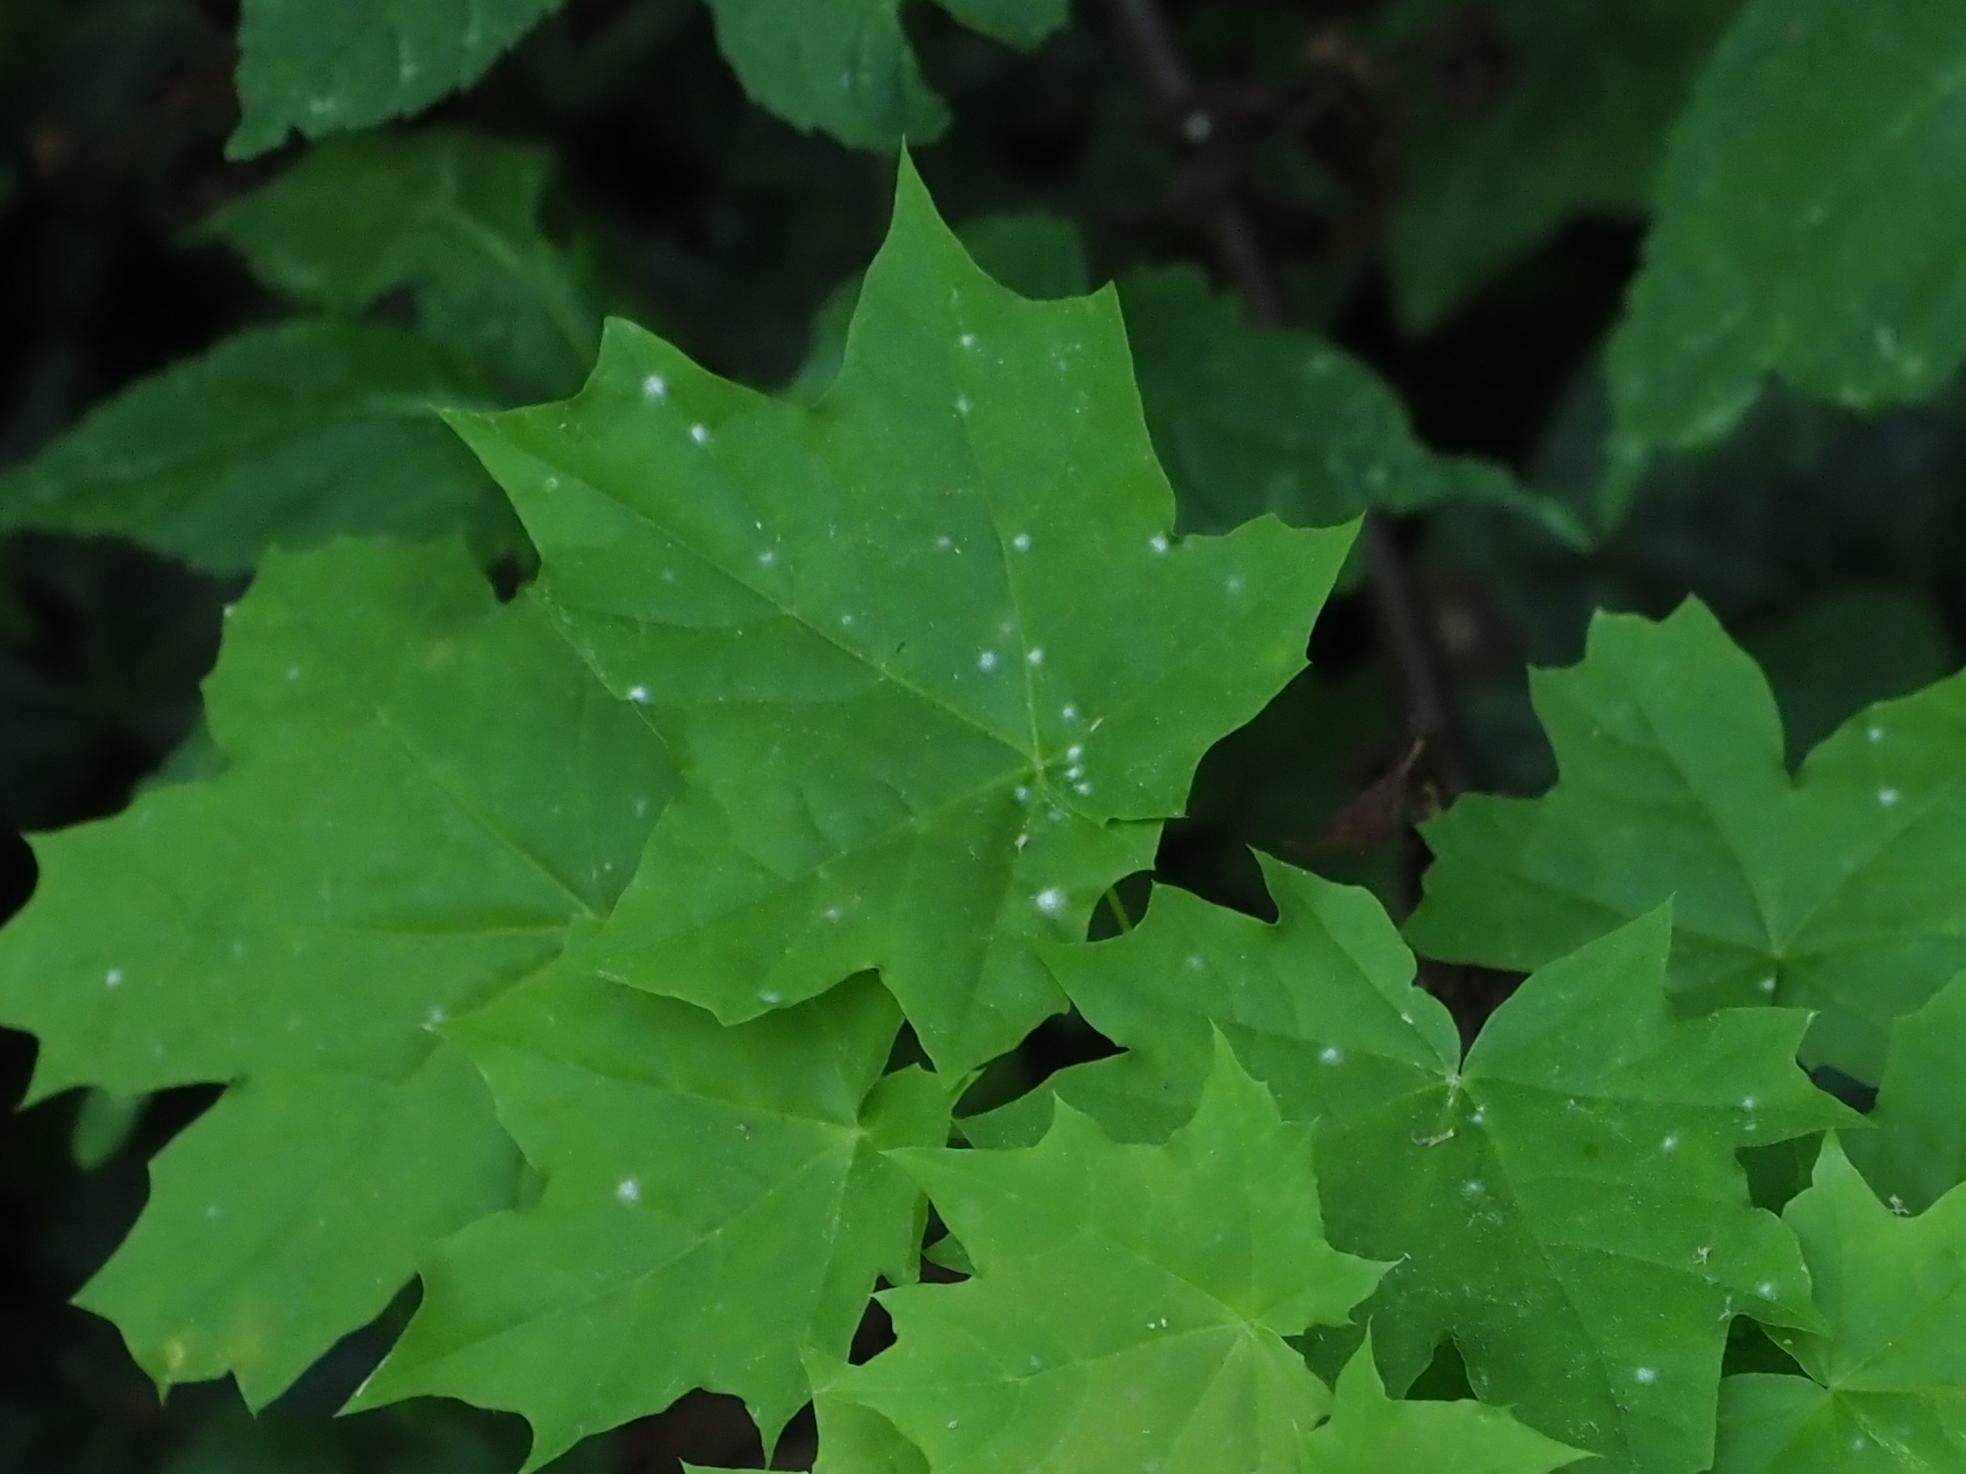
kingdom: Fungi
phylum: Ascomycota
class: Leotiomycetes
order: Helotiales
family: Erysiphaceae
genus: Sawadaea
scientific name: Sawadaea tulasnei
